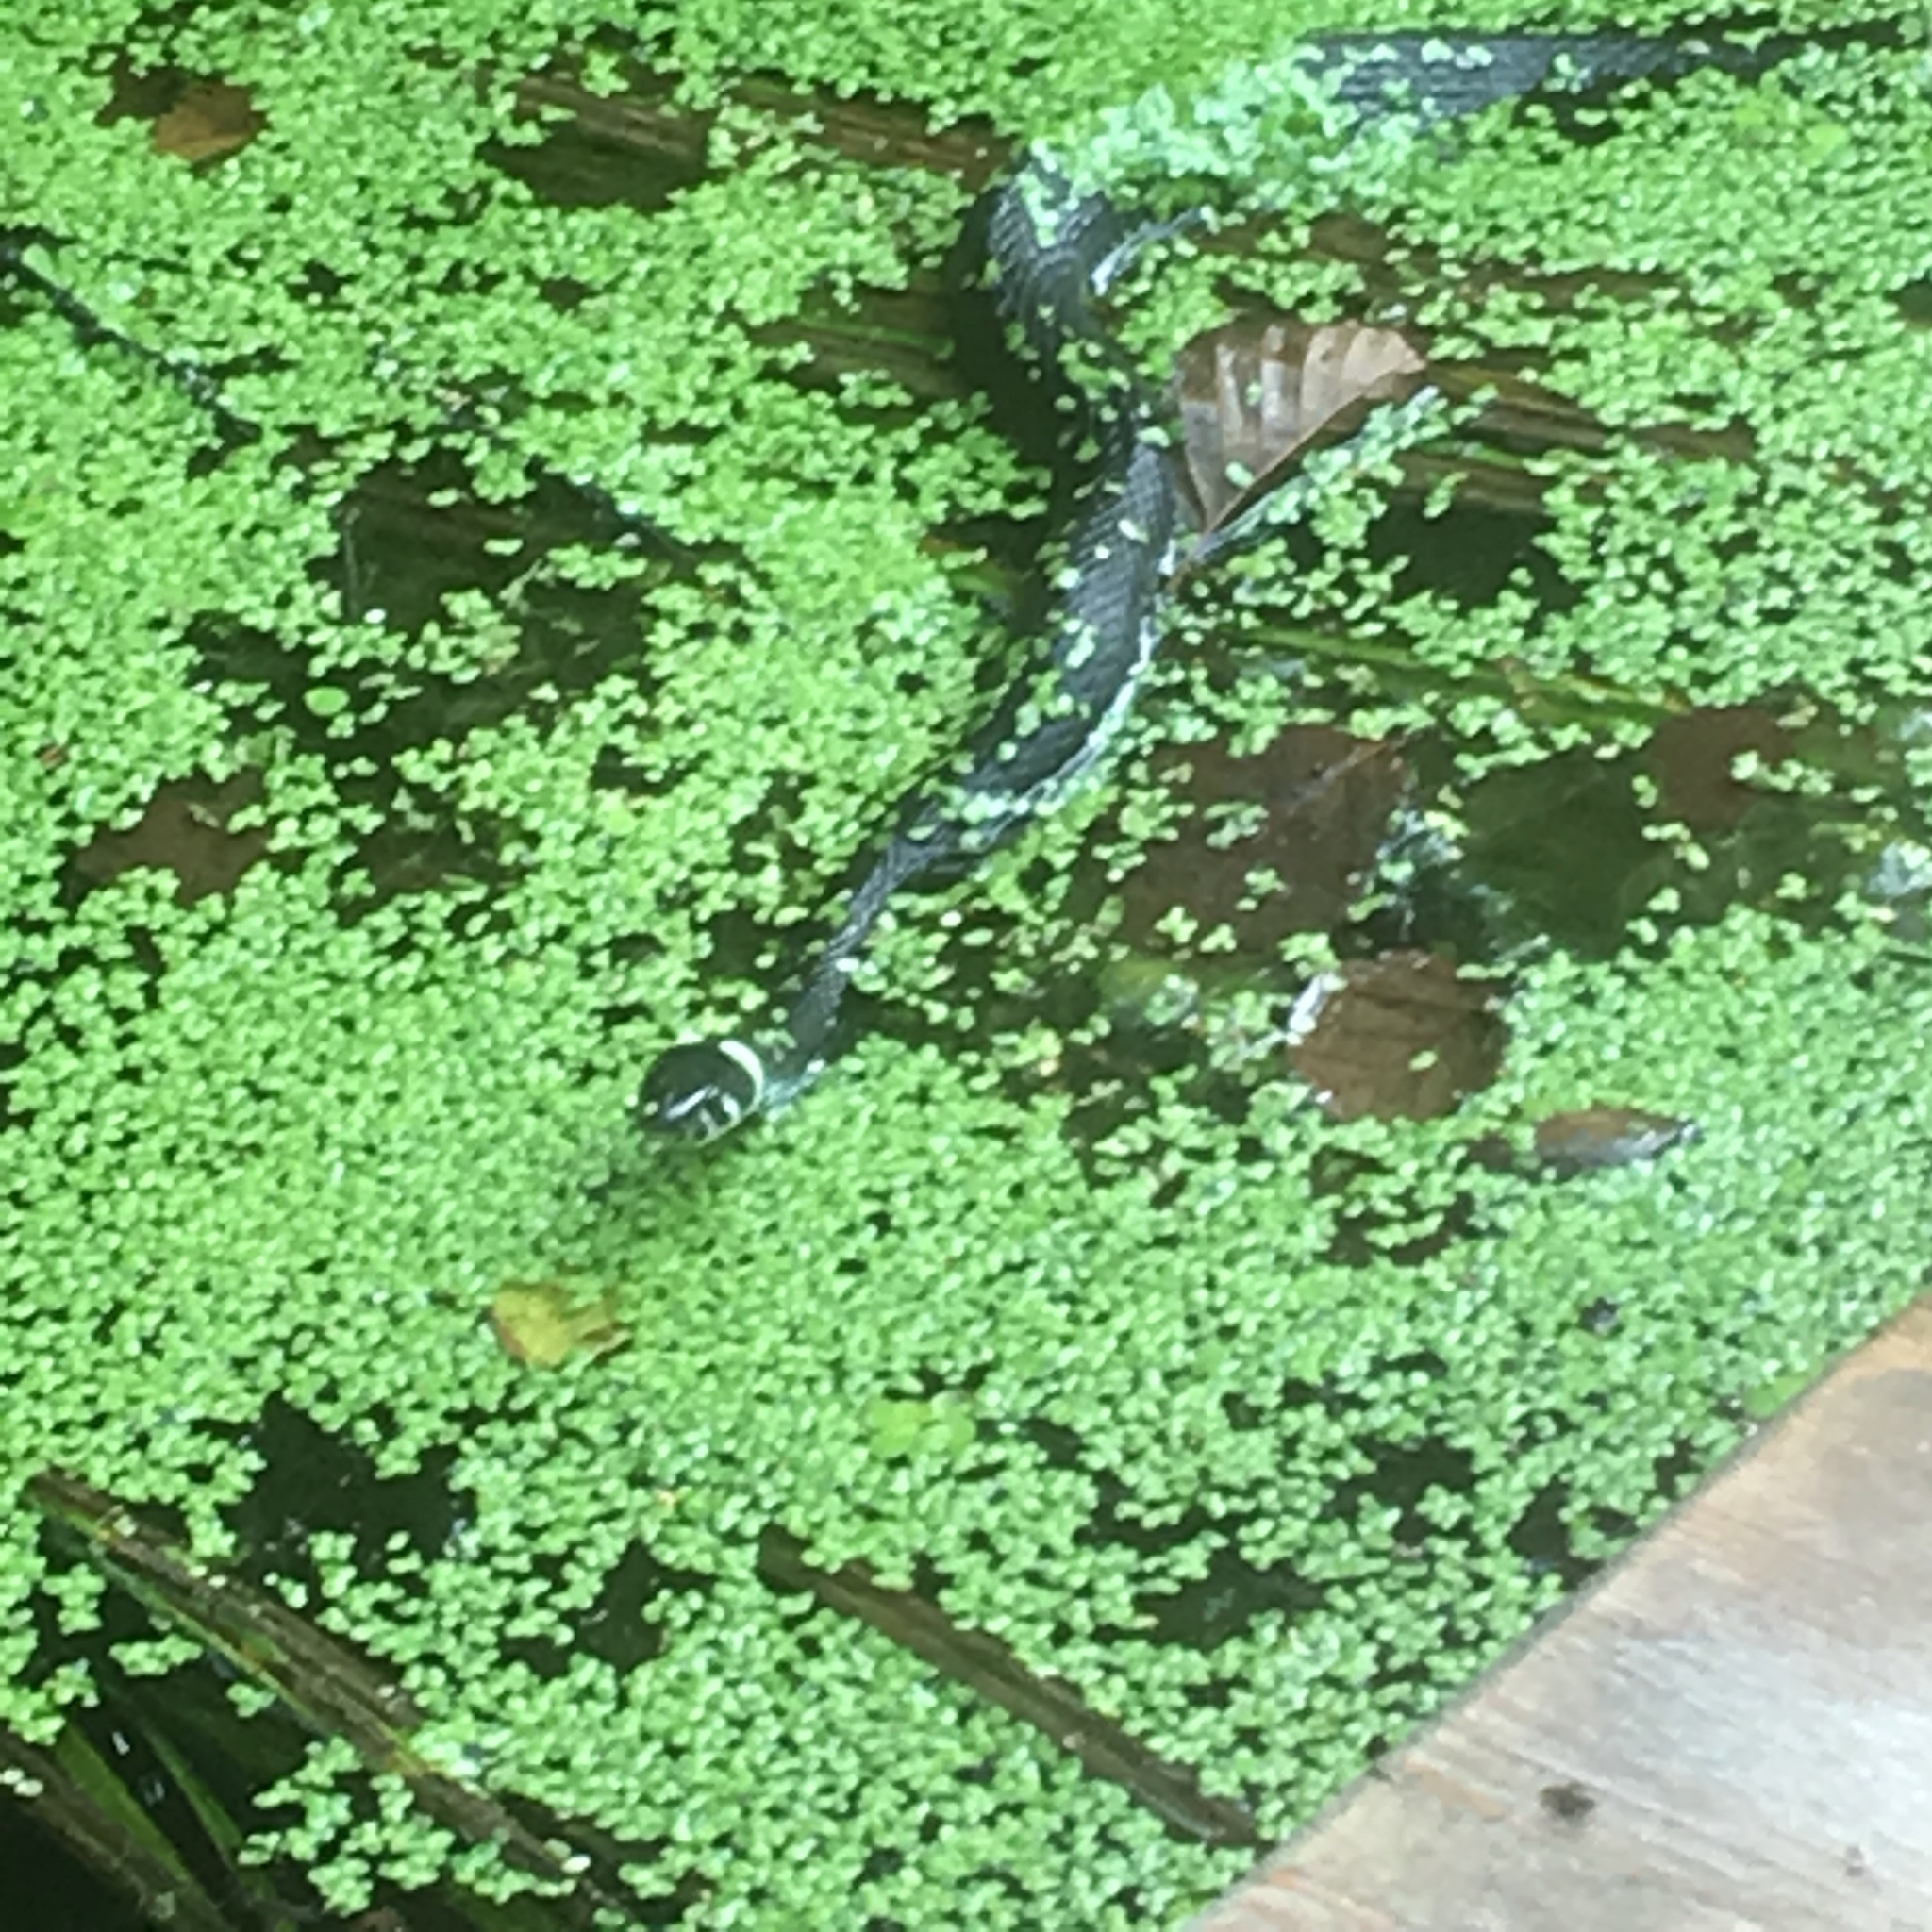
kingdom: Animalia
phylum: Chordata
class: Squamata
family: Colubridae
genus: Natrix
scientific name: Natrix natrix
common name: Grass snake
